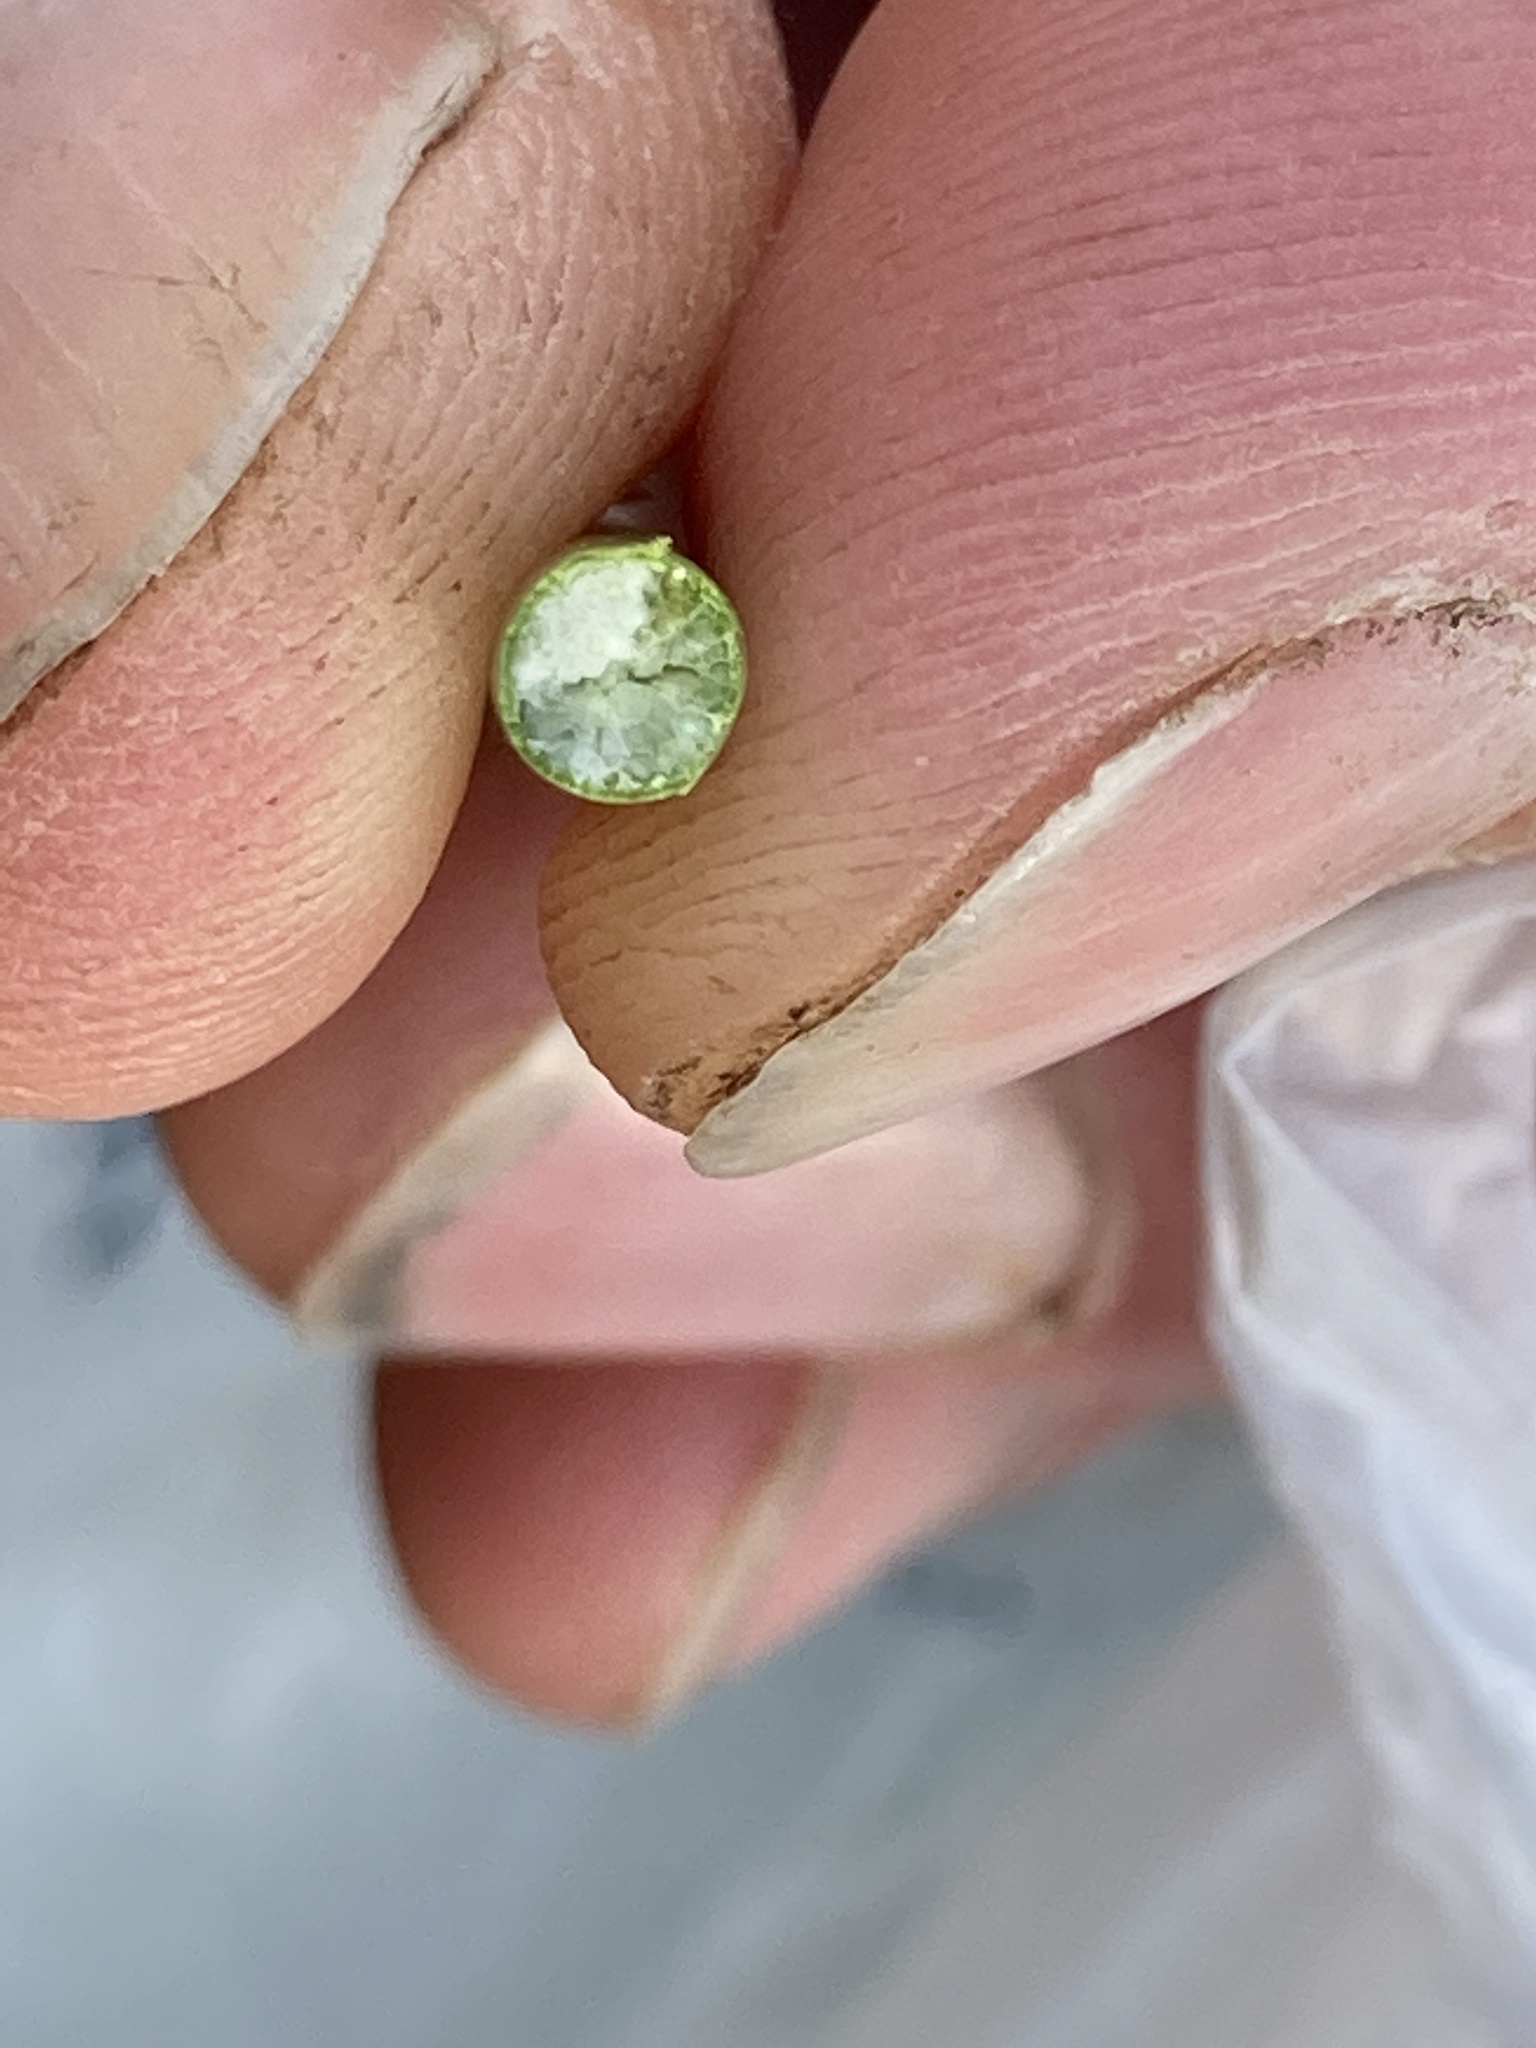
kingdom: Plantae
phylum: Tracheophyta
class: Liliopsida
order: Poales
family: Cyperaceae
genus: Schoenoplectus
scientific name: Schoenoplectus acutus
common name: Hardstem bulrush
